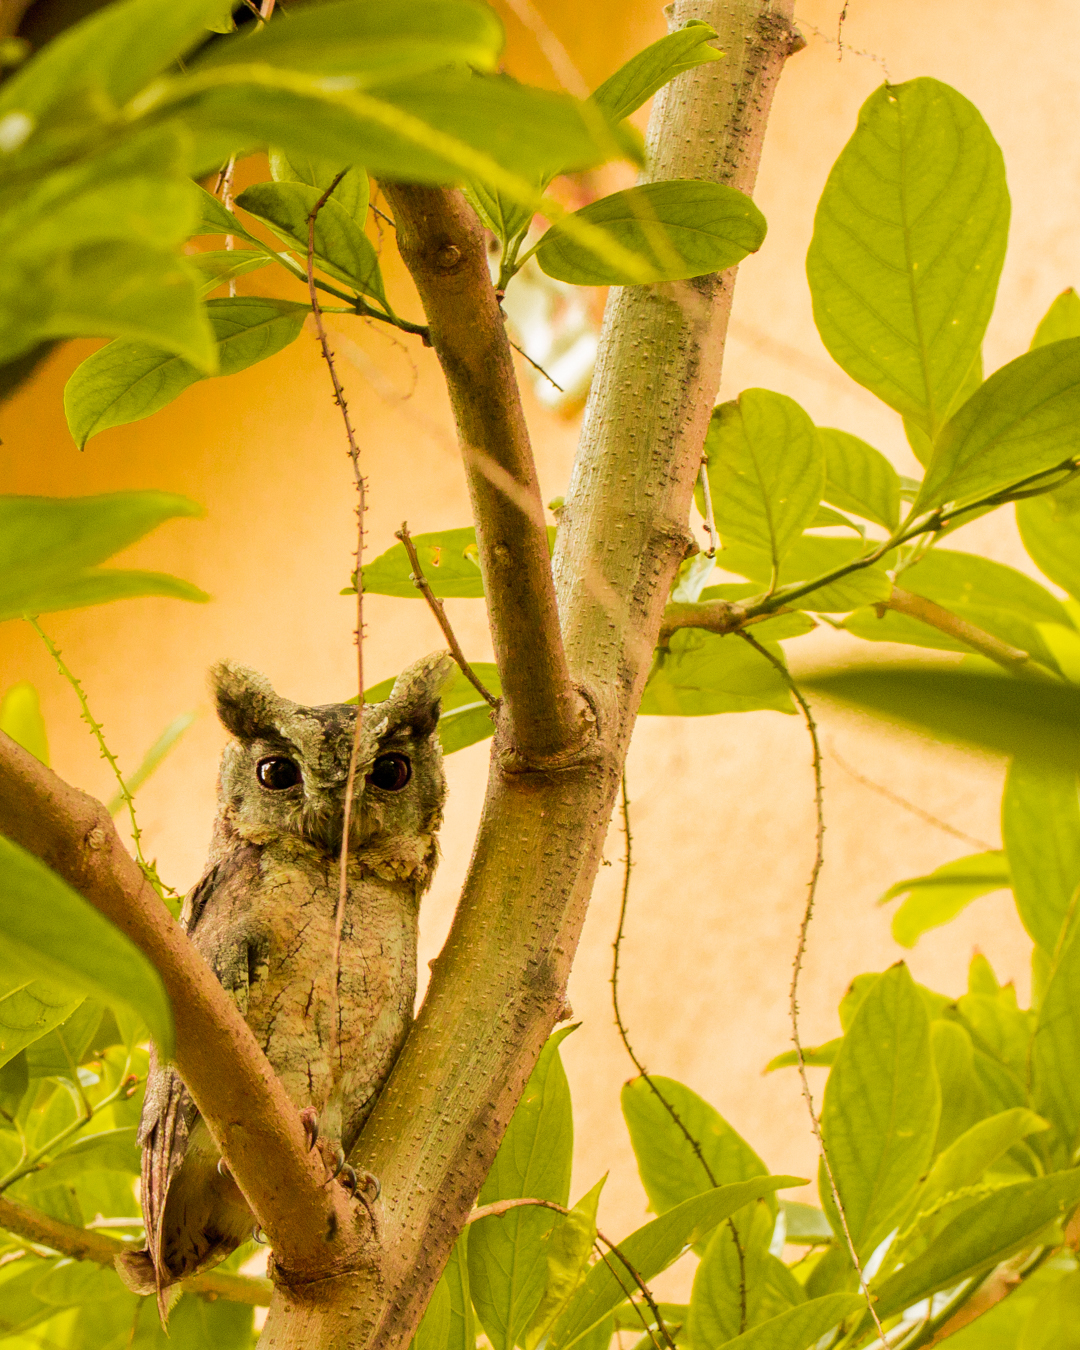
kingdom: Animalia
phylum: Chordata
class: Aves
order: Strigiformes
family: Strigidae
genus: Otus
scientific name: Otus bakkamoena
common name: Indian scops owl
